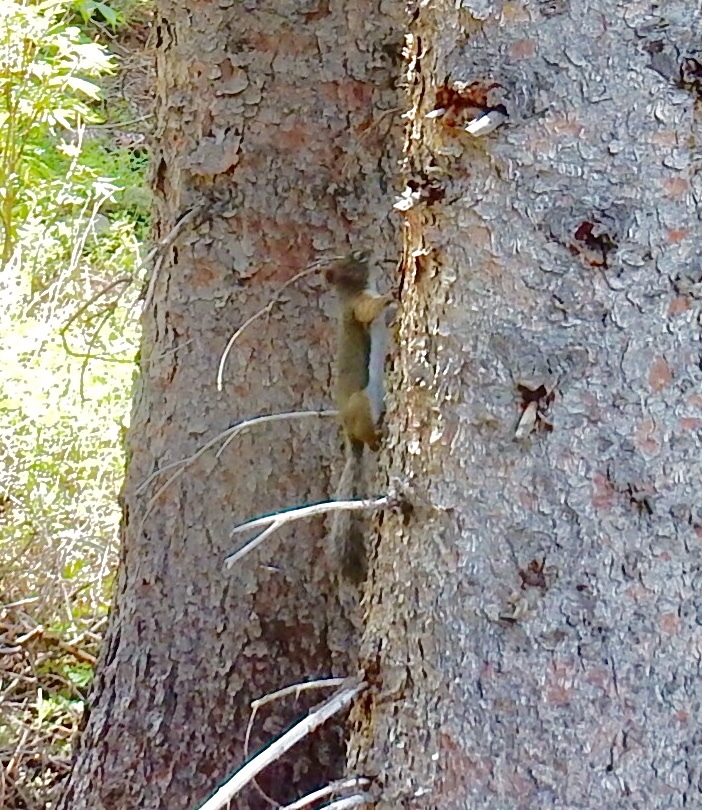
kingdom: Animalia
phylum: Chordata
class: Mammalia
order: Rodentia
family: Sciuridae
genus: Tamiasciurus
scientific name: Tamiasciurus hudsonicus
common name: Red squirrel
